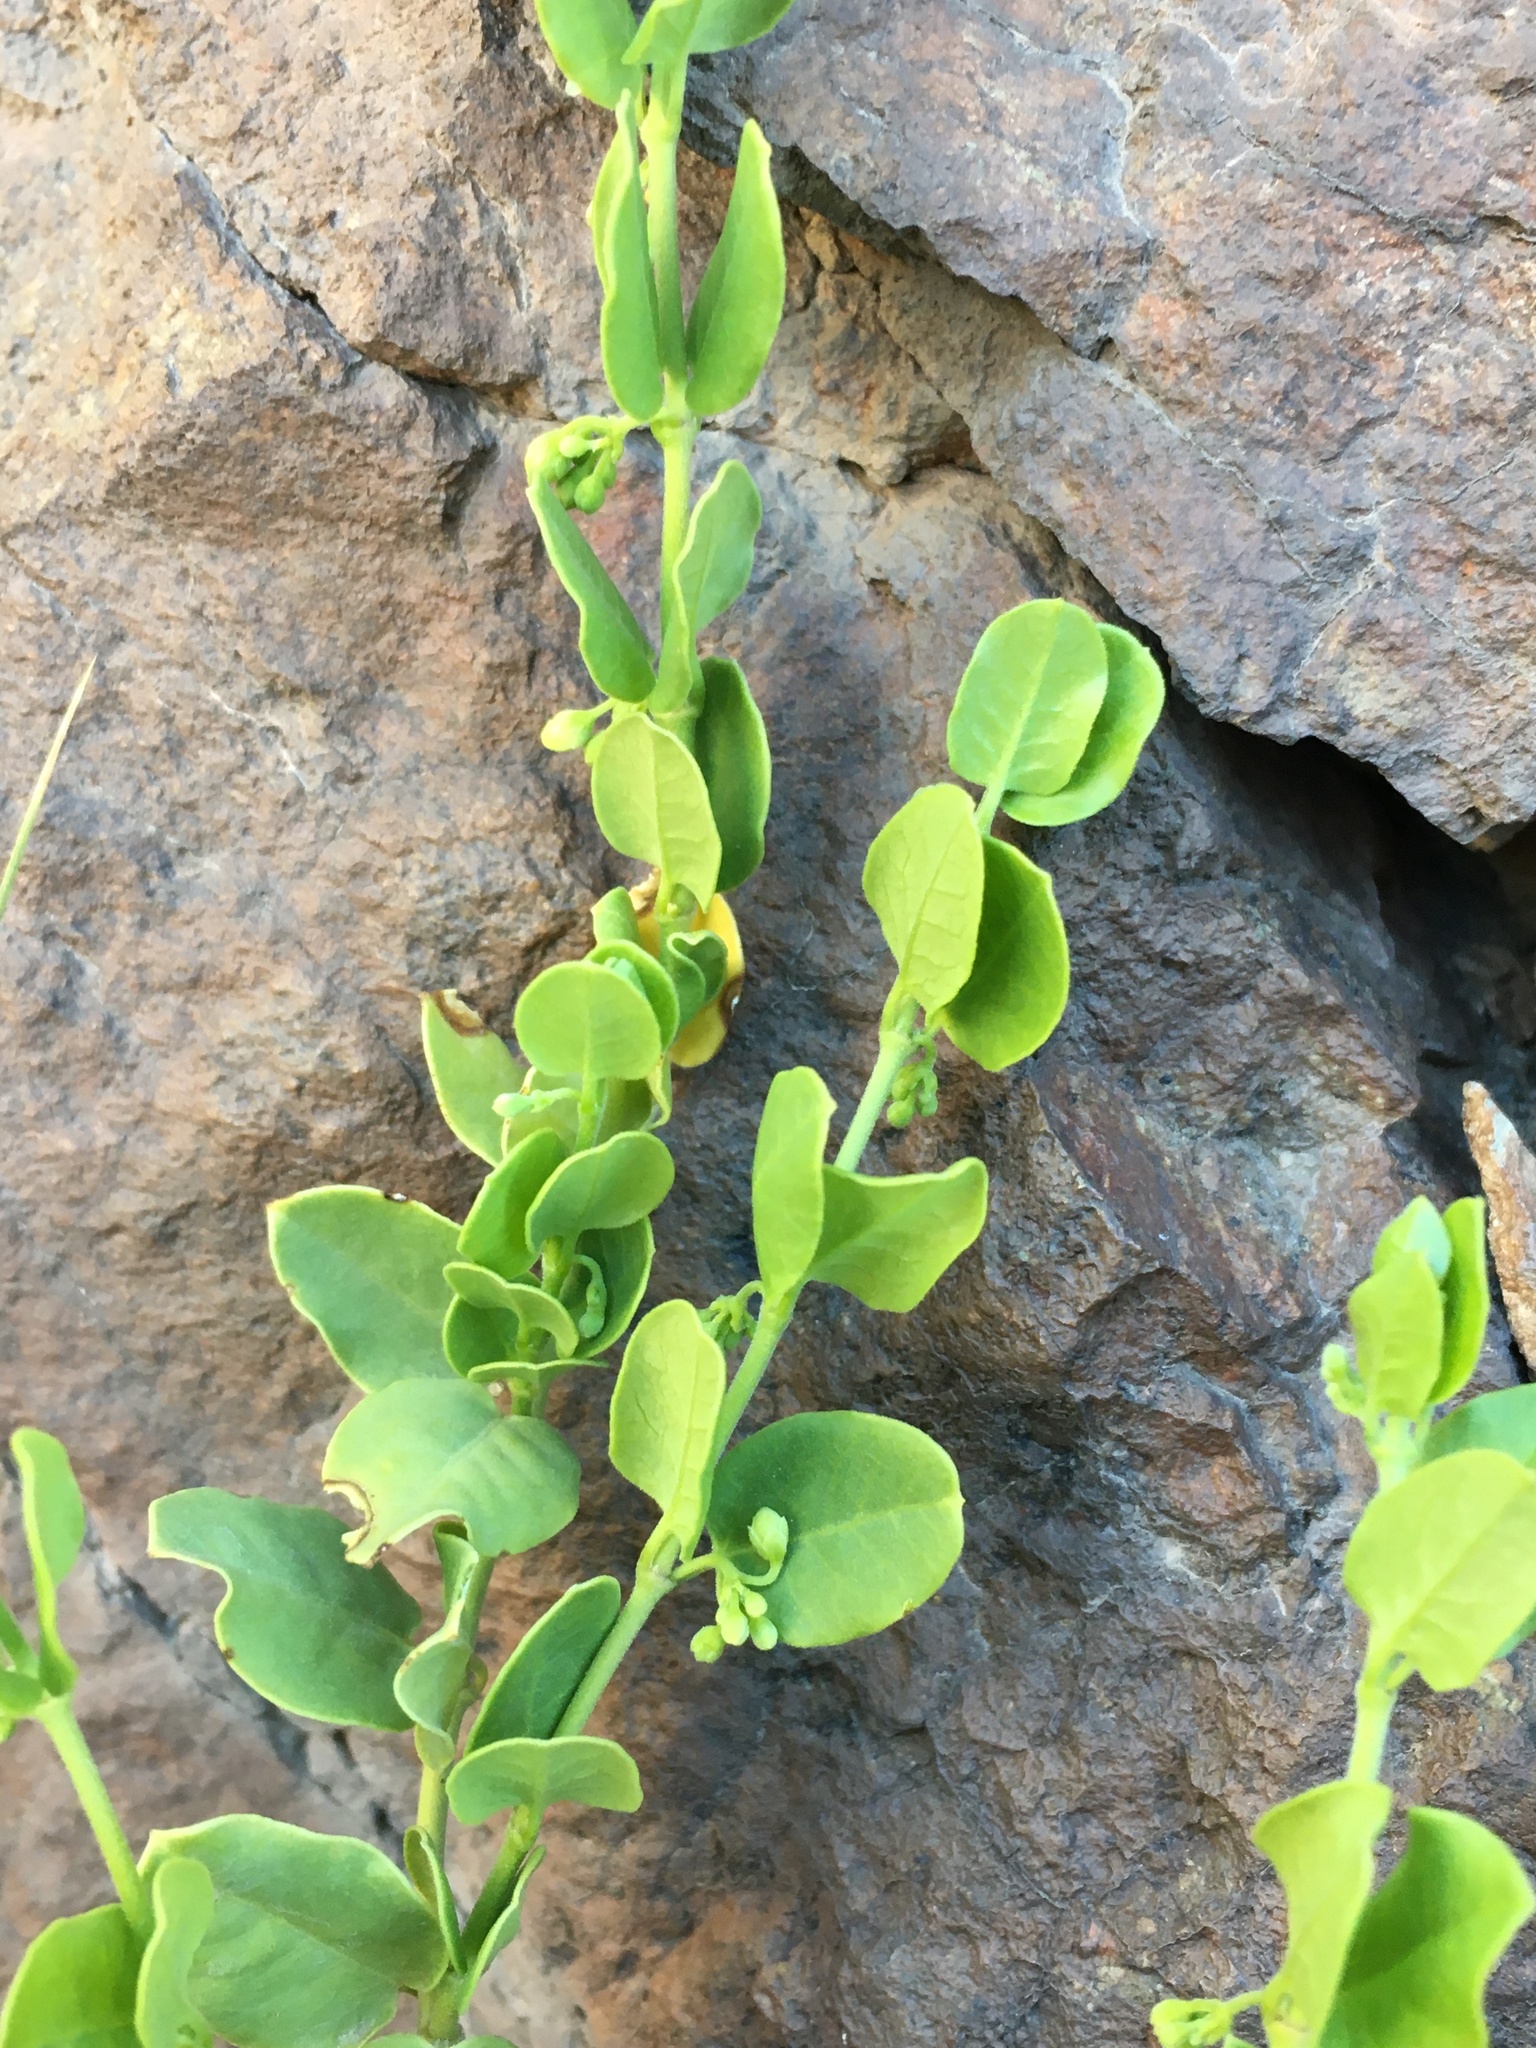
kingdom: Plantae
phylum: Tracheophyta
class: Magnoliopsida
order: Gentianales
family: Apocynaceae
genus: Diplolepis
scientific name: Diplolepis nummulariifolia
